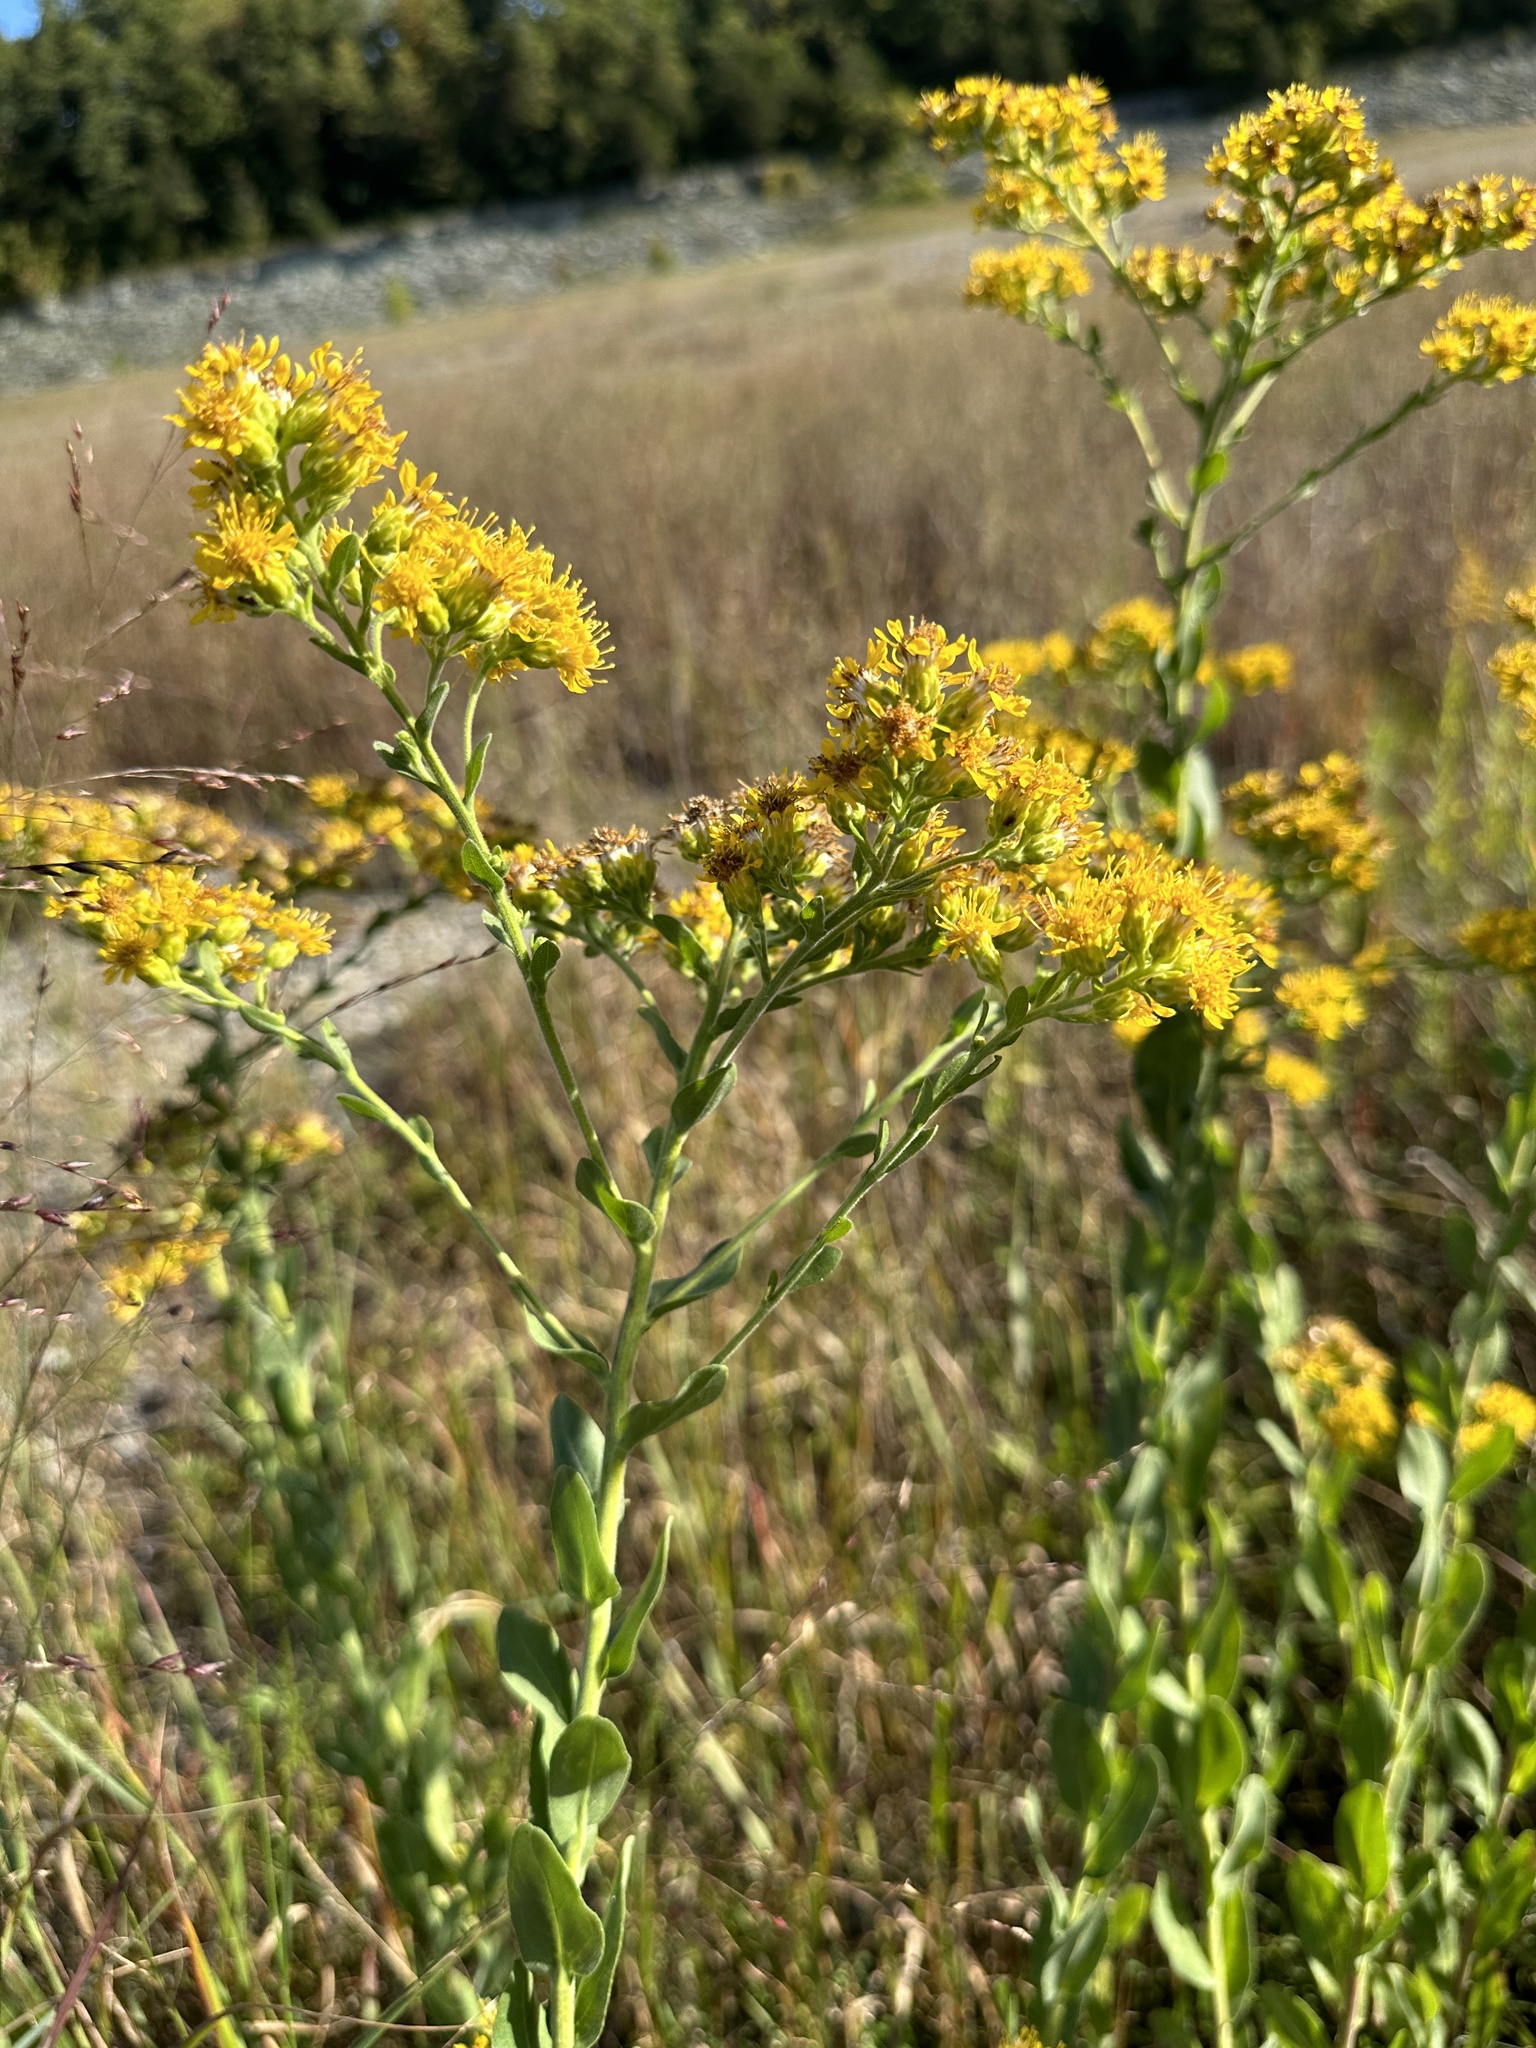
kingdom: Plantae
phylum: Tracheophyta
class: Magnoliopsida
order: Asterales
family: Asteraceae
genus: Solidago
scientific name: Solidago rigida
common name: Rigid goldenrod
